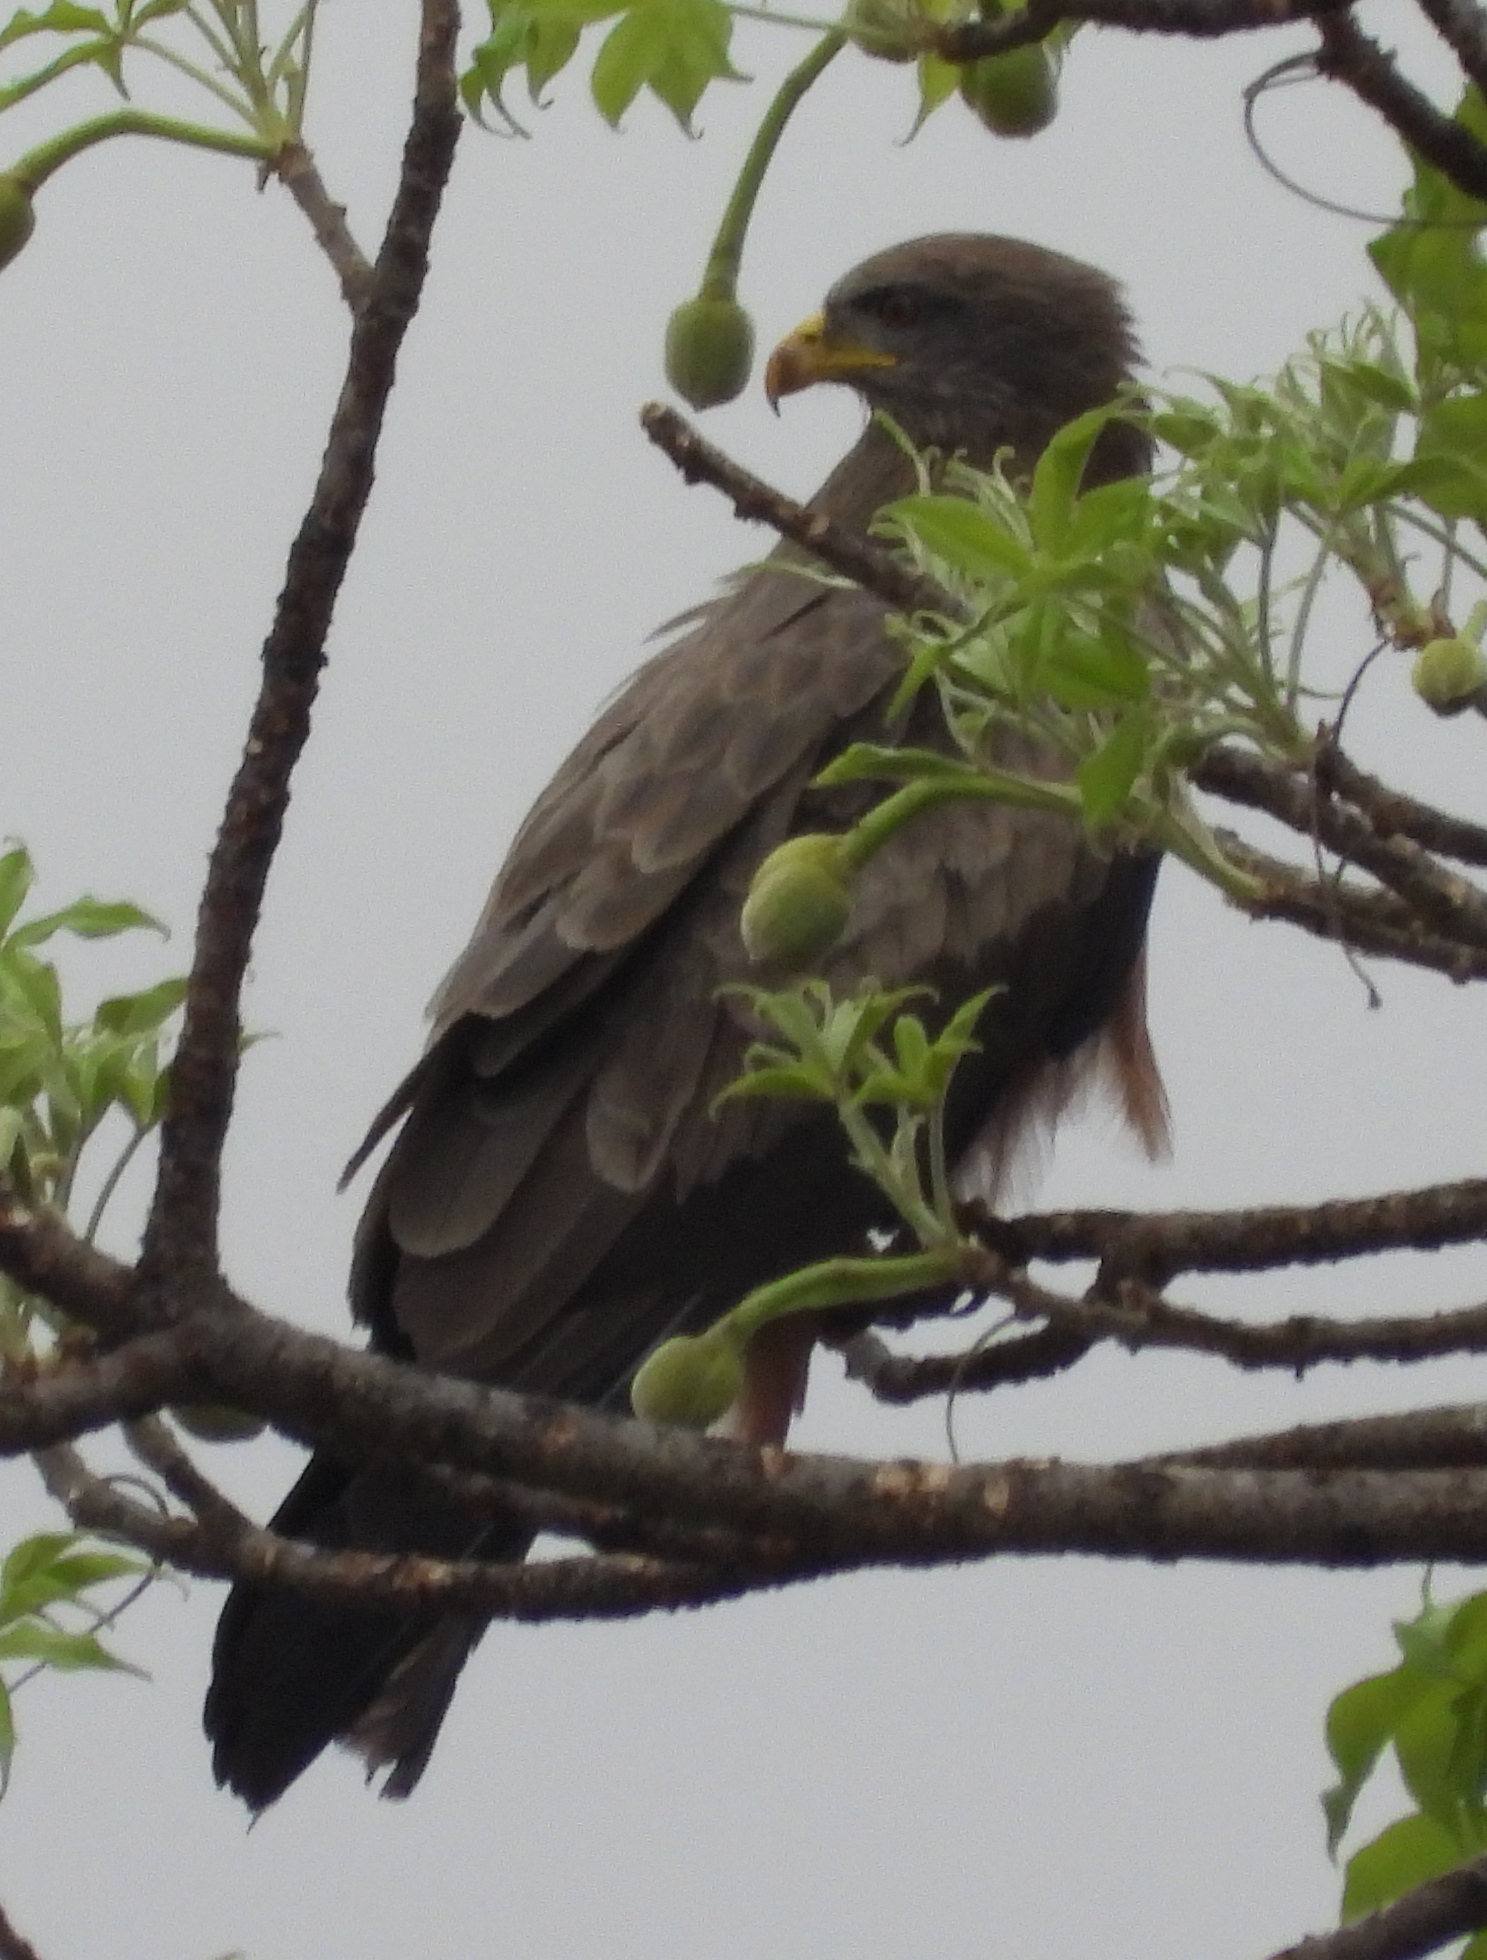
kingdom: Animalia
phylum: Chordata
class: Aves
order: Accipitriformes
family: Accipitridae
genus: Milvus
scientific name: Milvus migrans
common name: Black kite
